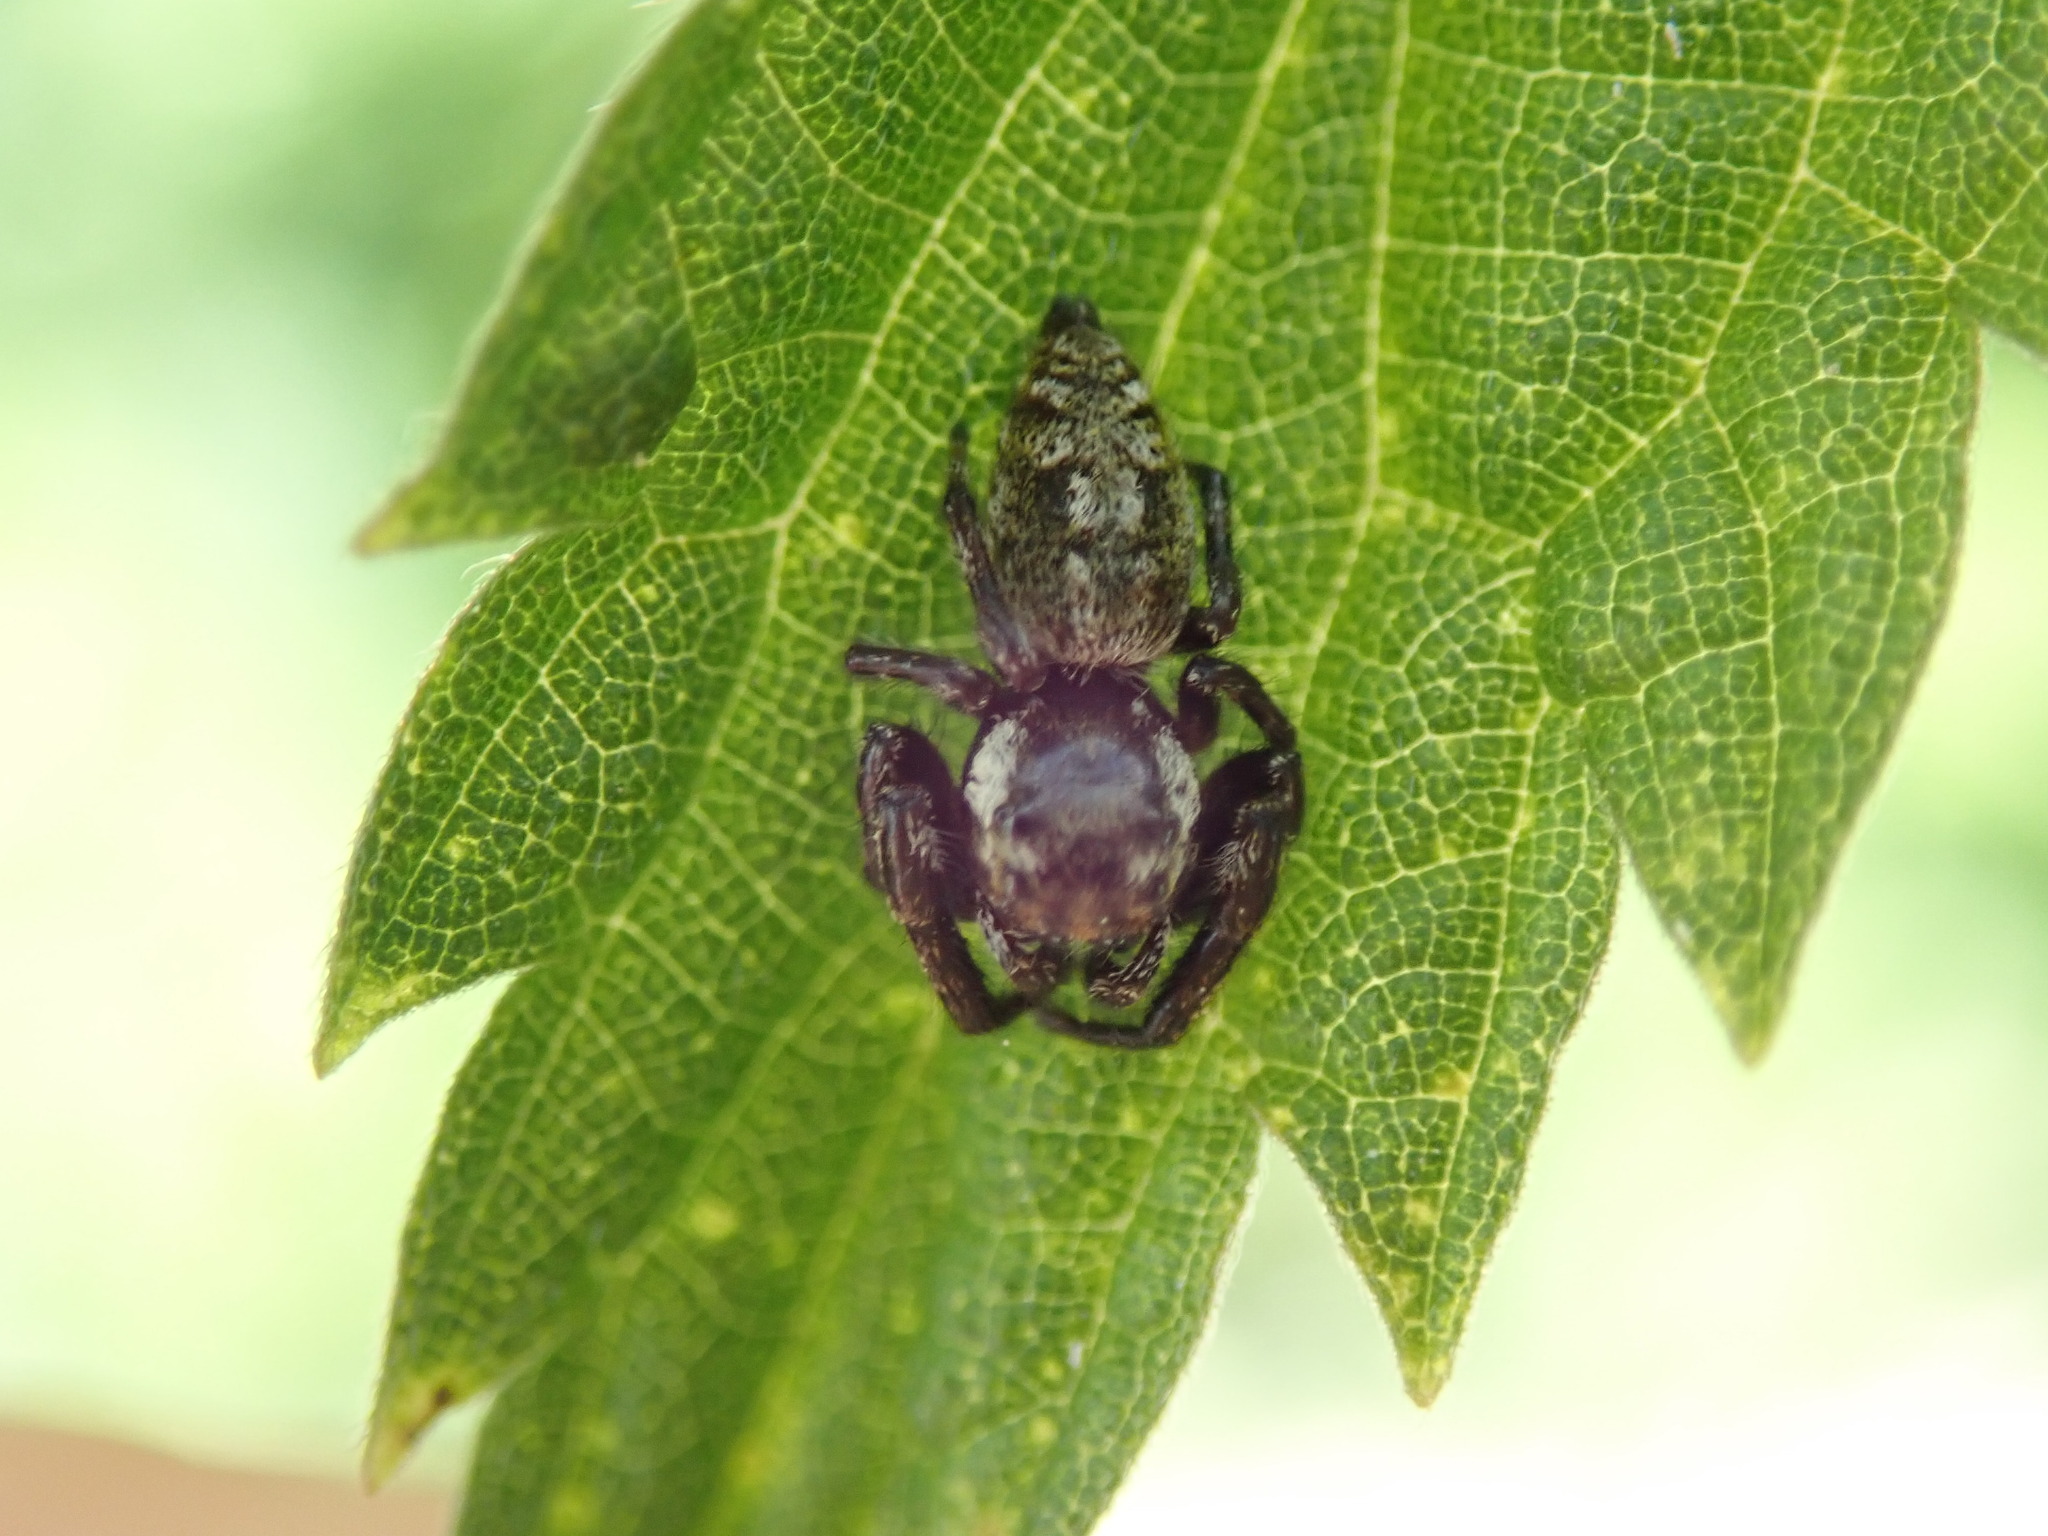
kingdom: Animalia
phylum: Arthropoda
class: Arachnida
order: Araneae
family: Salticidae
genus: Macaroeris
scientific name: Macaroeris nidicolens
